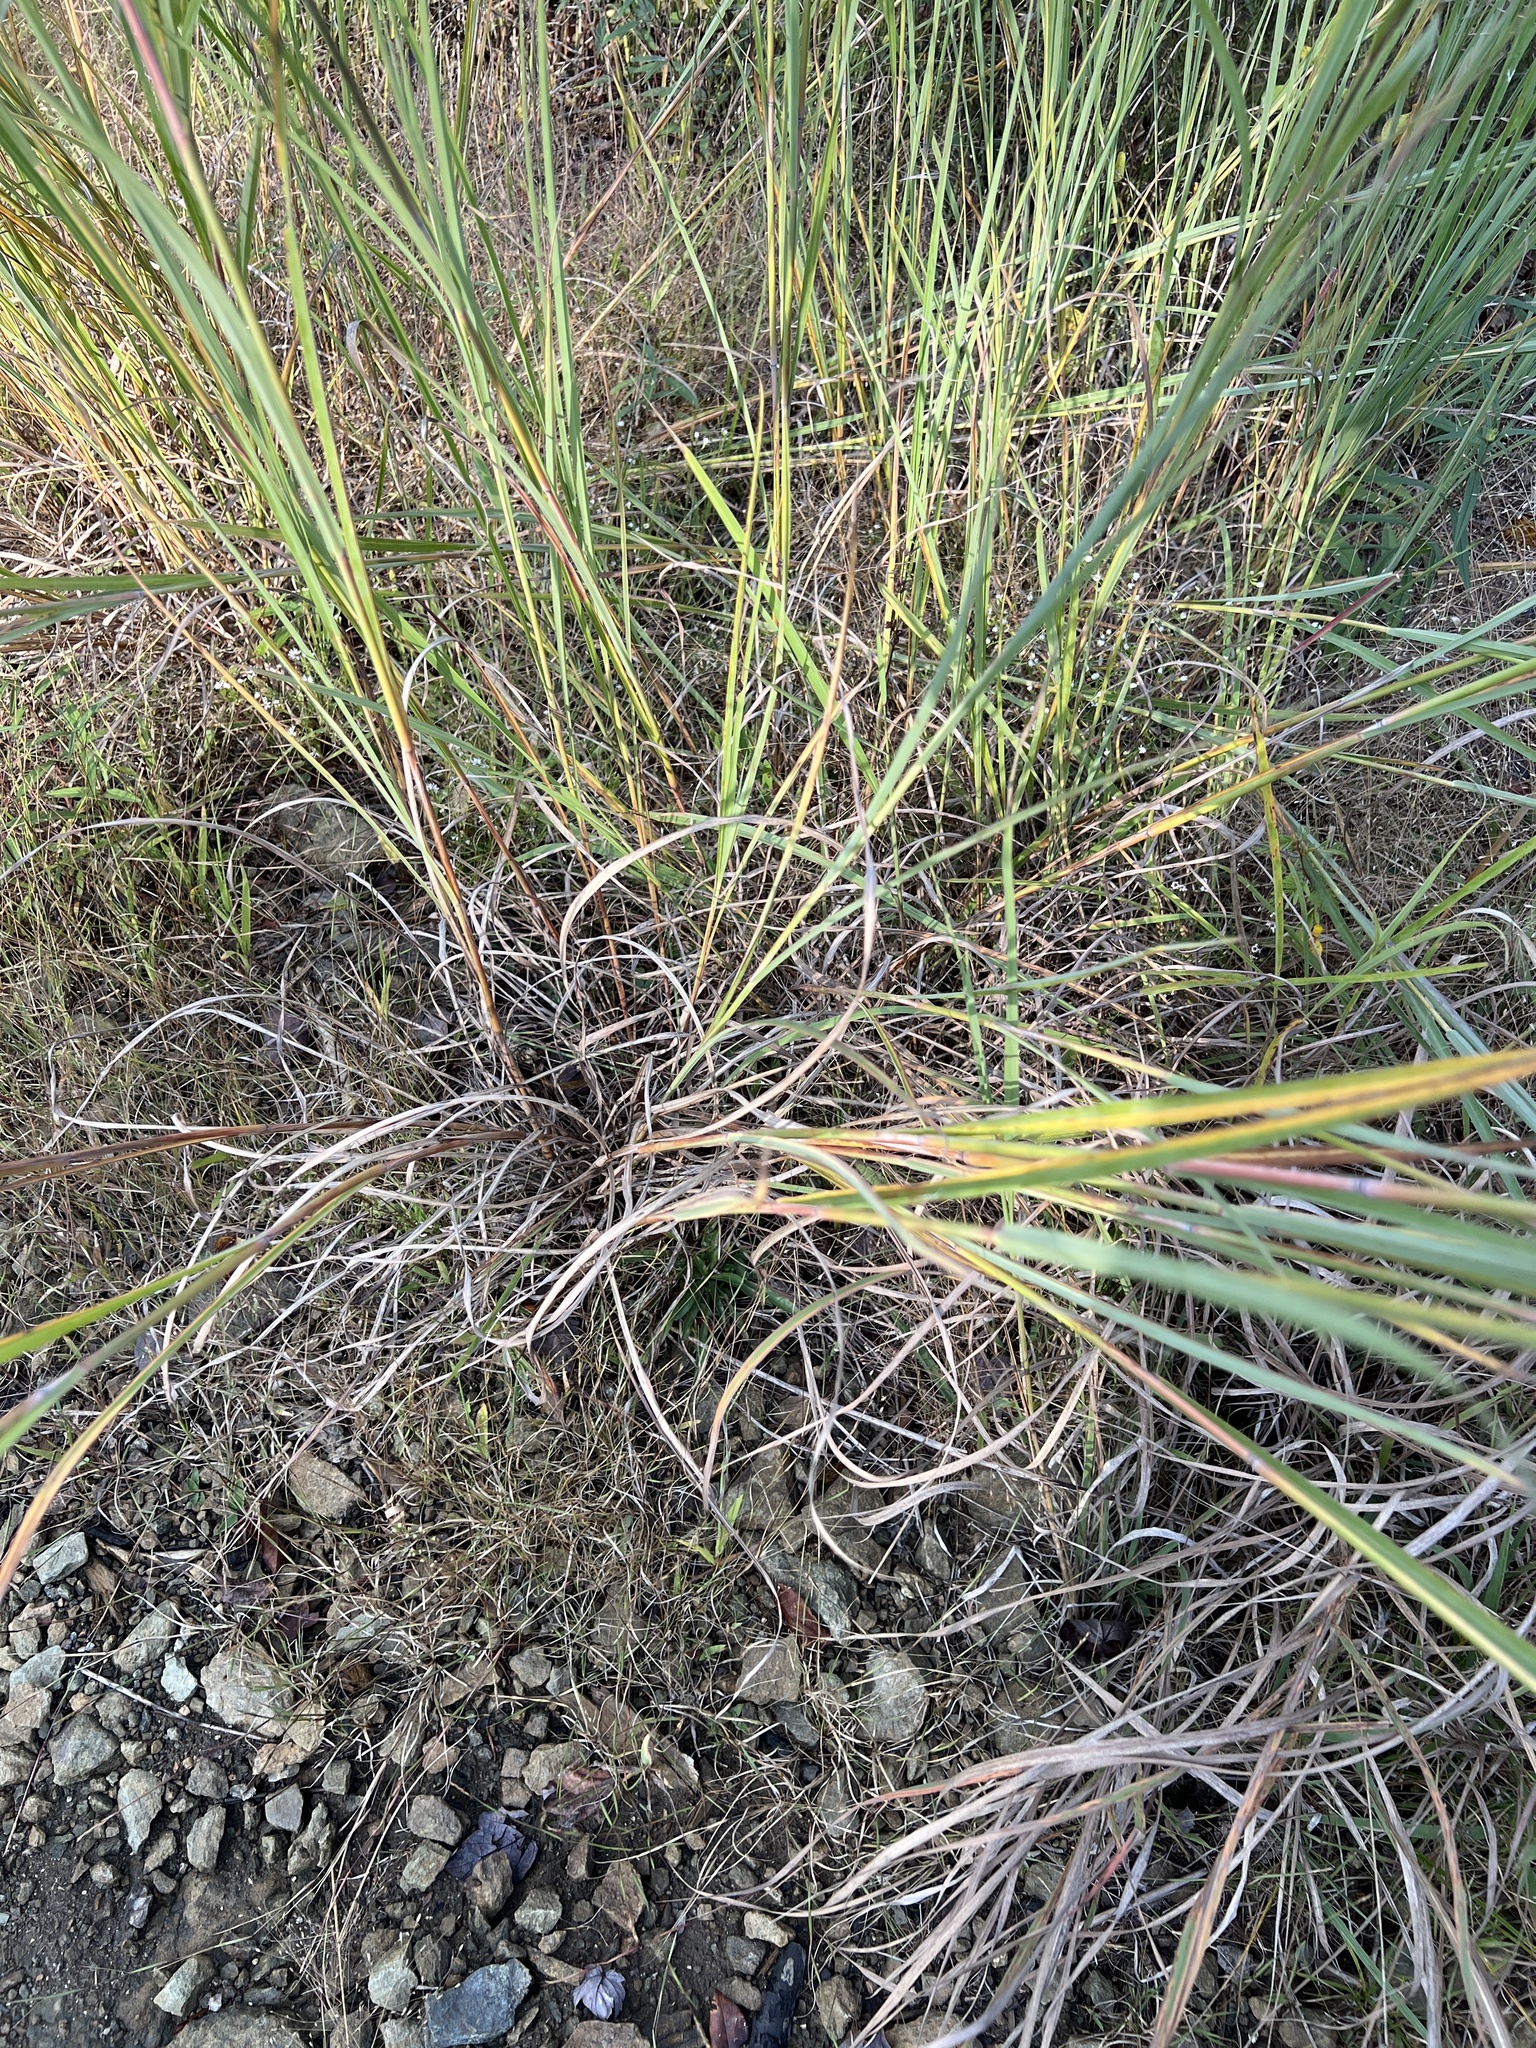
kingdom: Plantae
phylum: Tracheophyta
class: Liliopsida
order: Poales
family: Poaceae
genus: Andropogon
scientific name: Andropogon gerardi
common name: Big bluestem
